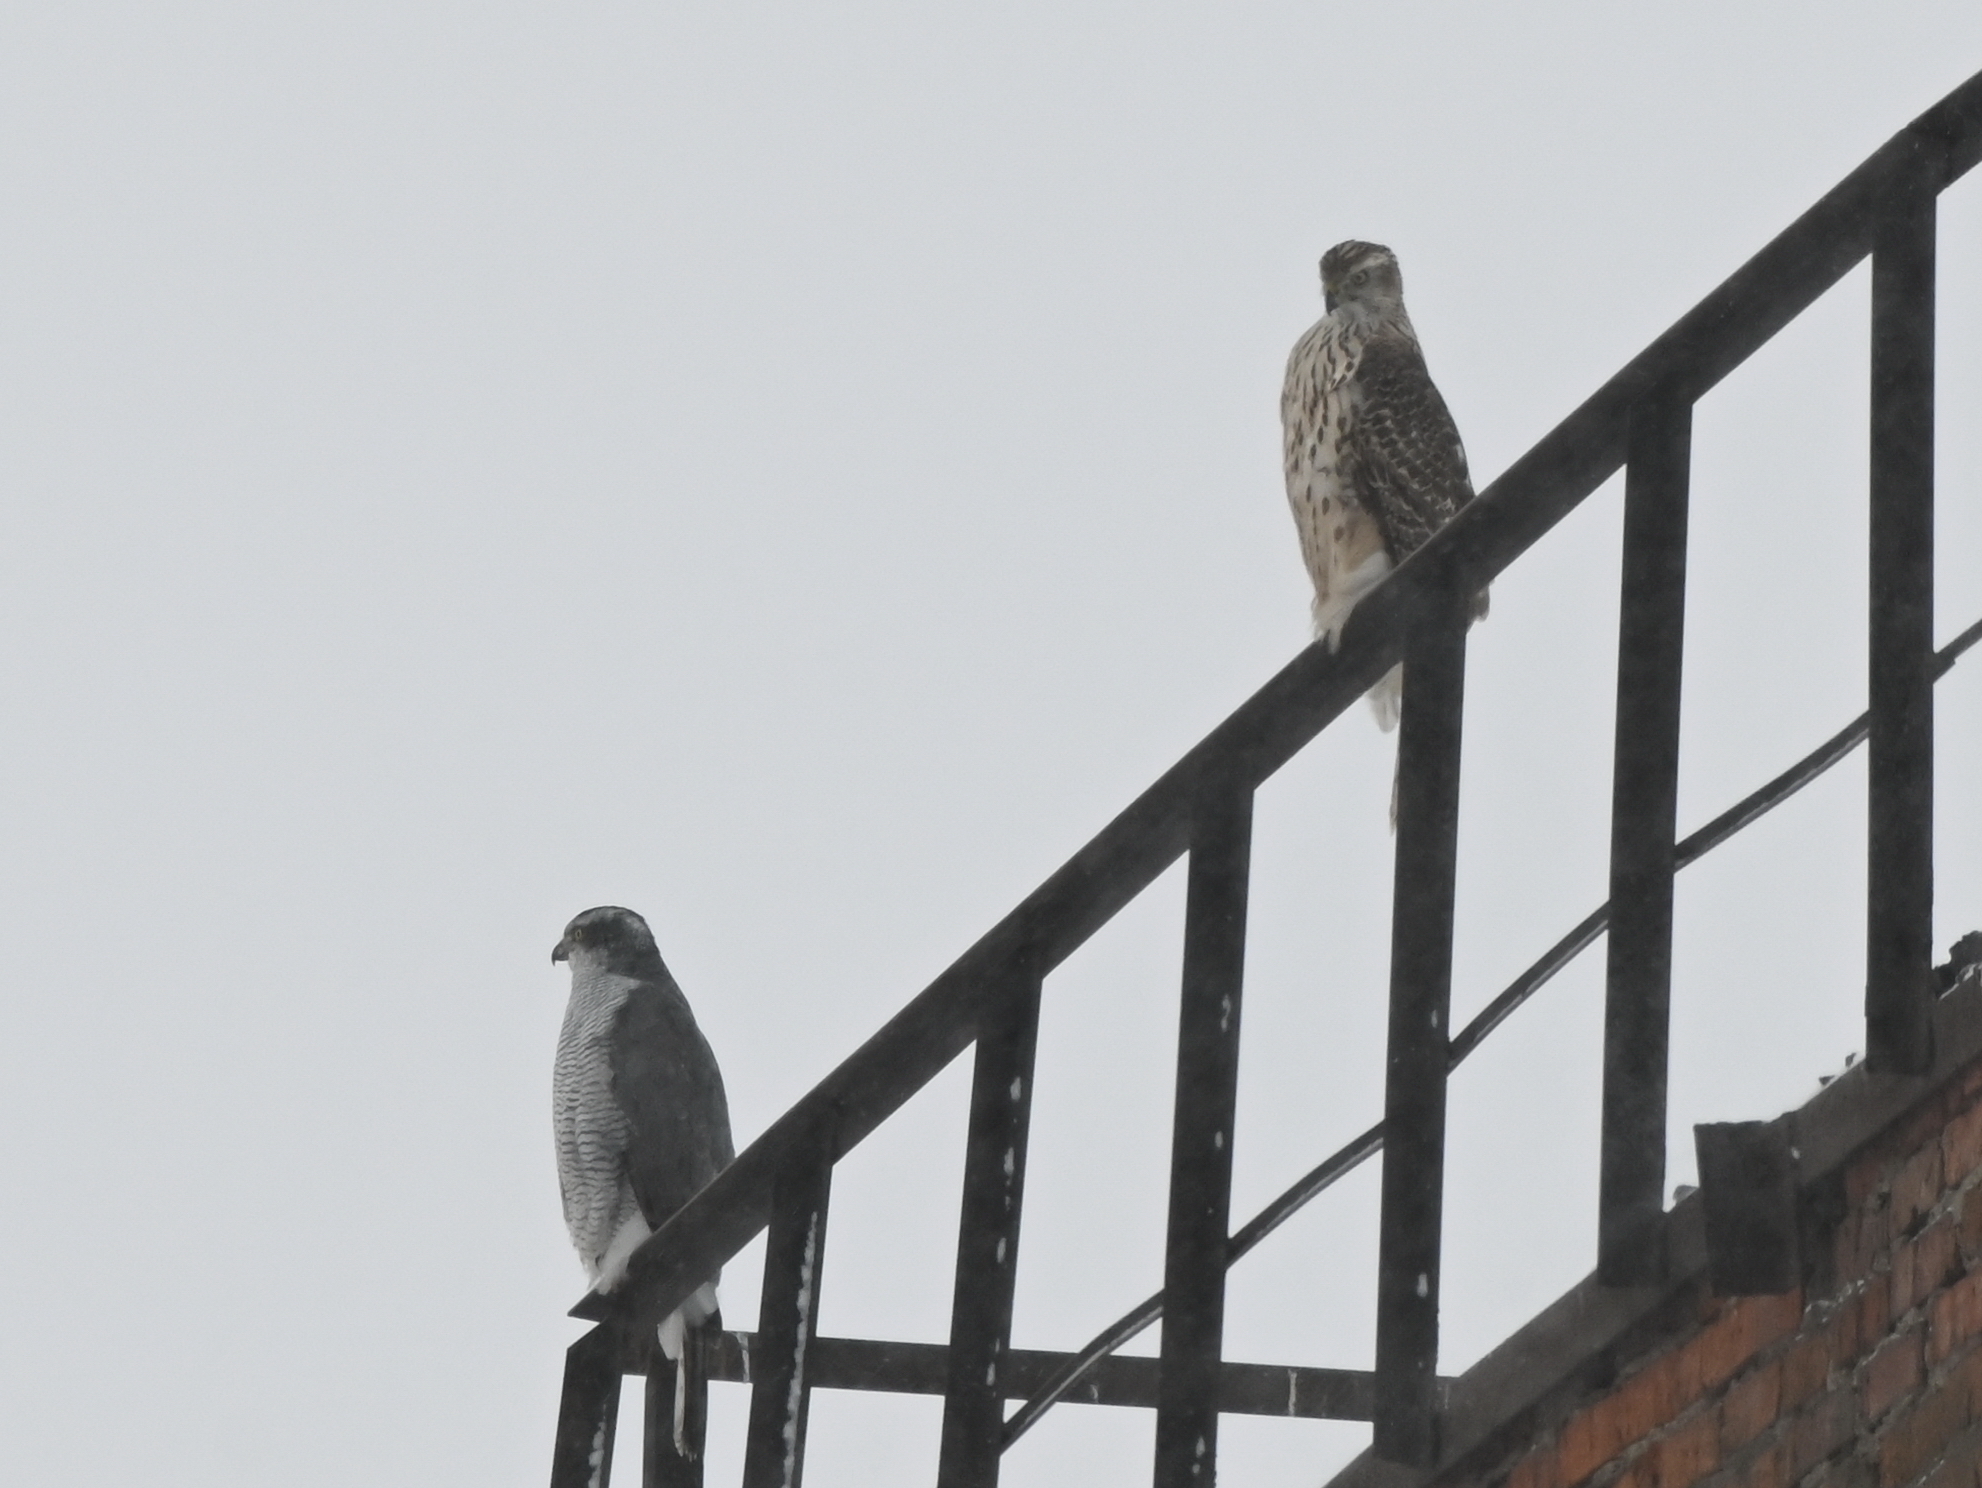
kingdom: Animalia
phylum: Chordata
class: Aves
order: Accipitriformes
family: Accipitridae
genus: Accipiter
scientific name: Accipiter gentilis
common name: Northern goshawk
